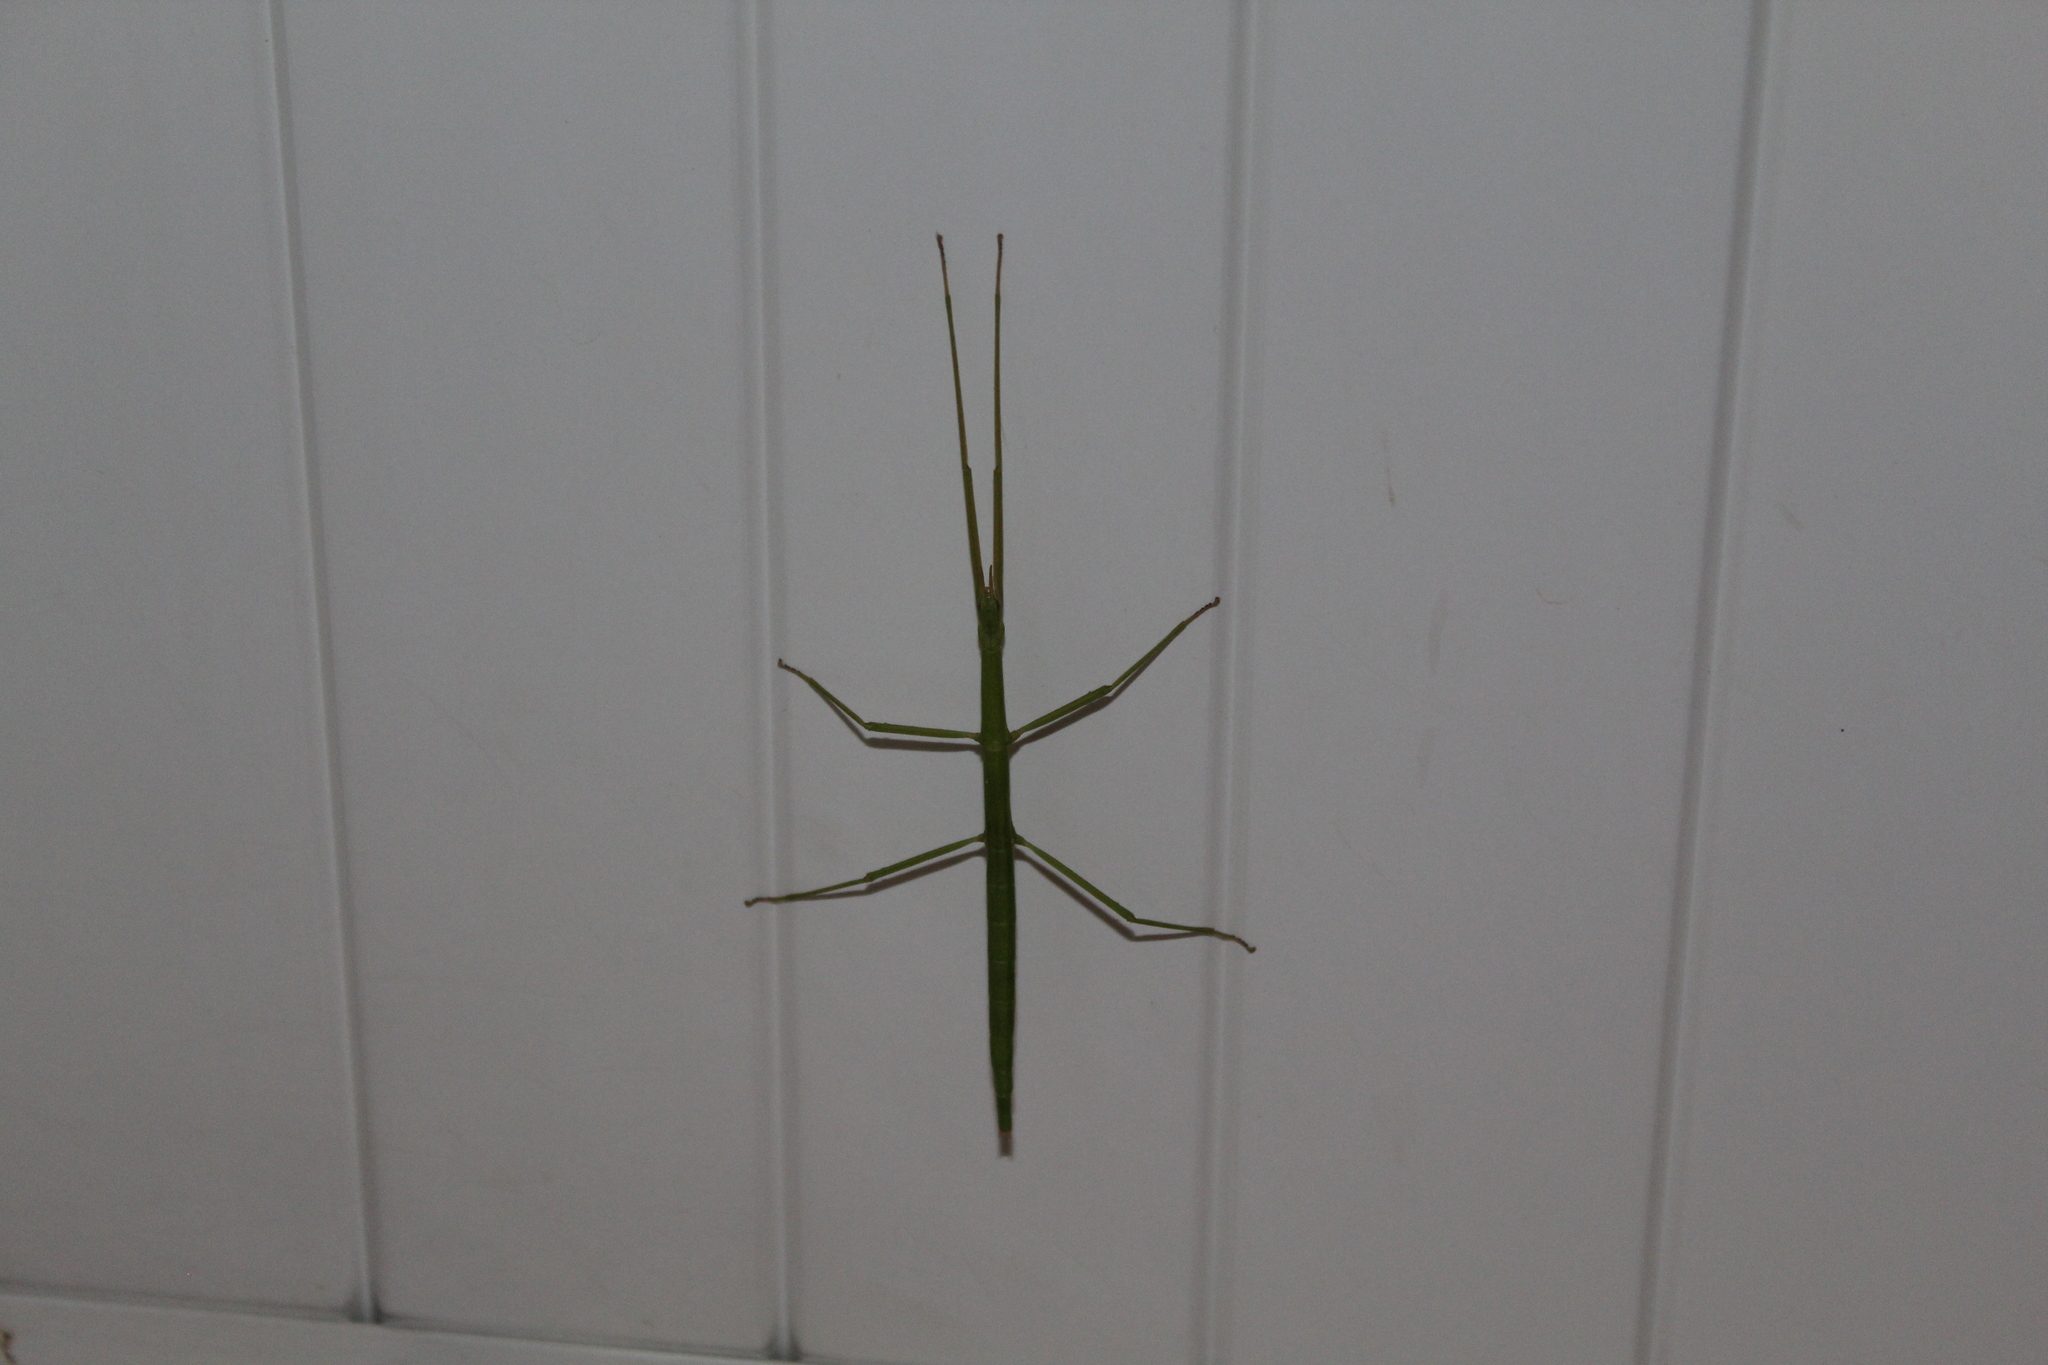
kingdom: Animalia
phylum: Arthropoda
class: Insecta
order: Phasmida
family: Bacillidae
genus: Clonopsis
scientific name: Clonopsis gallica
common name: French stick insect
